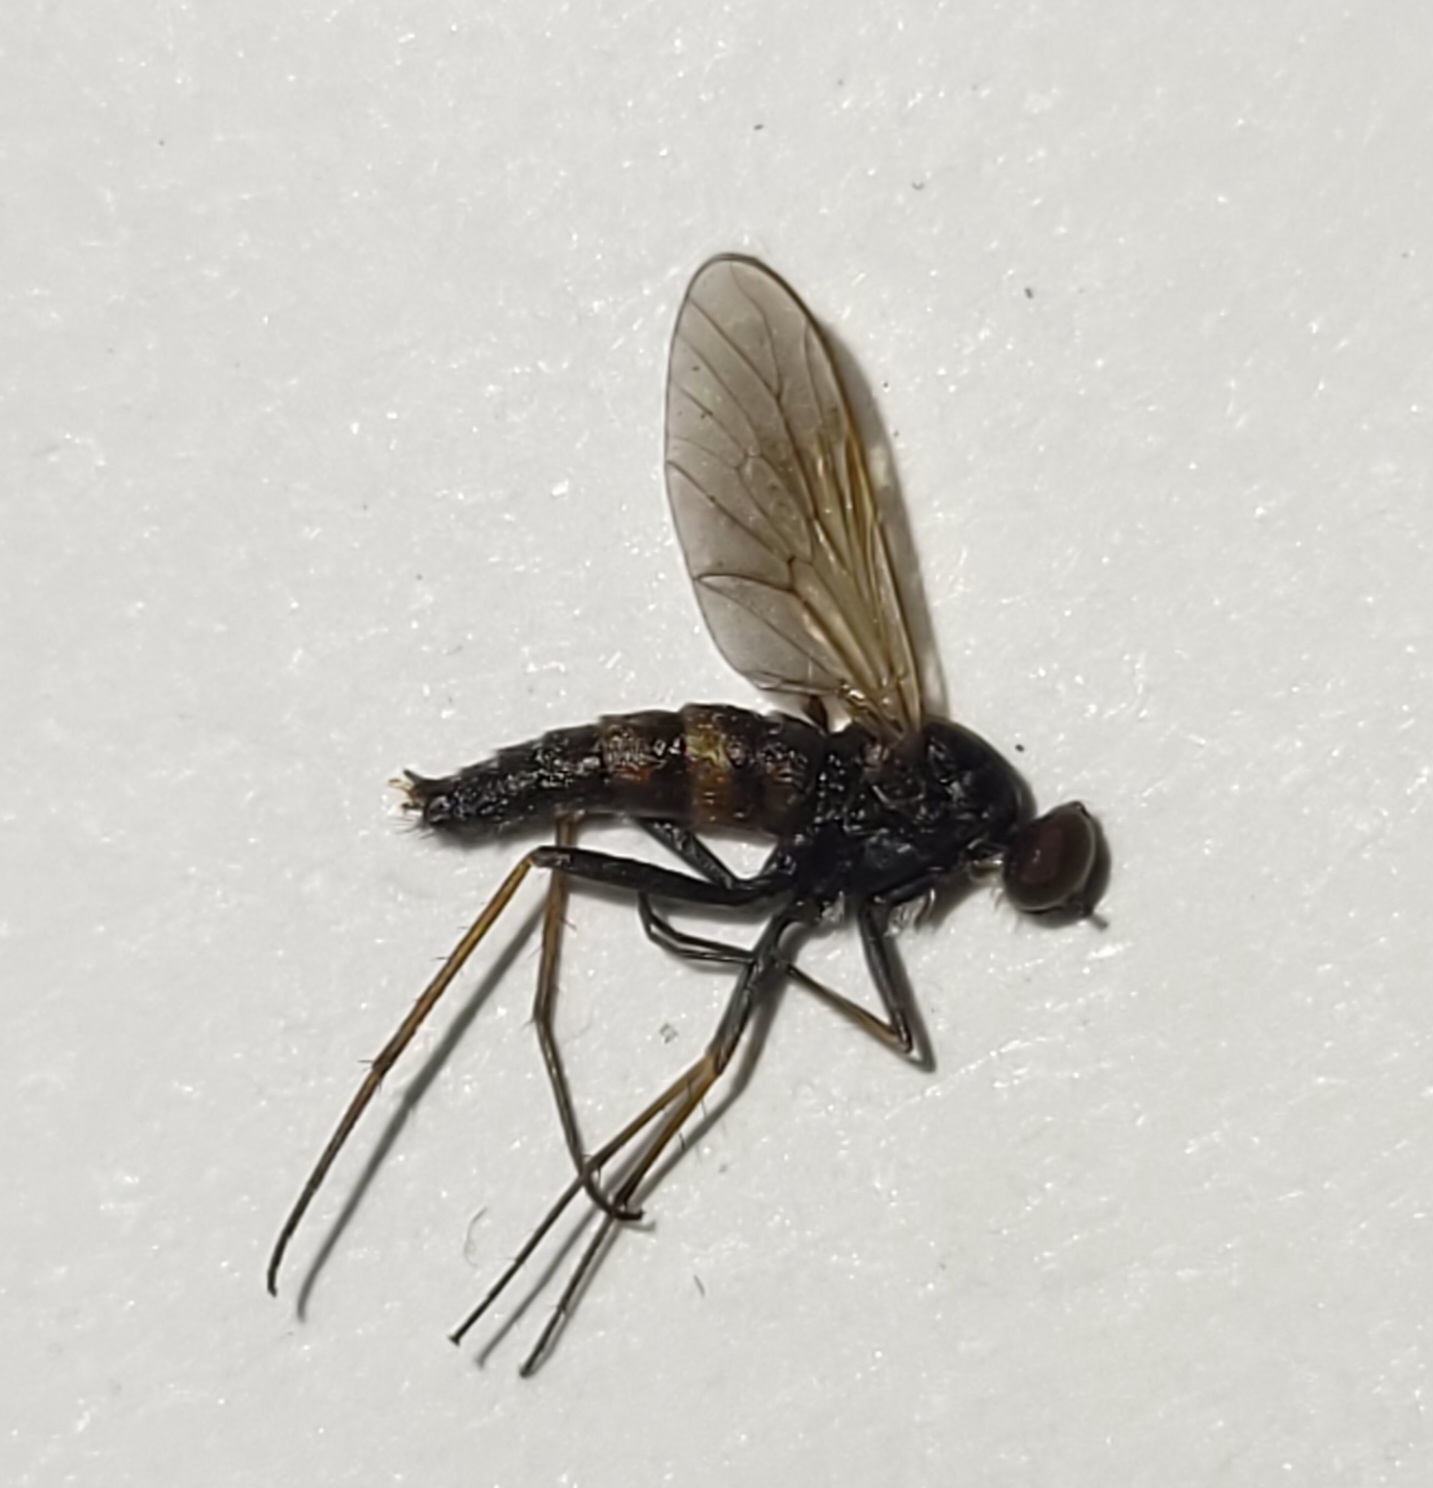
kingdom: Animalia
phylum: Arthropoda
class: Insecta
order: Diptera
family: Therevidae
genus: Penniverpa
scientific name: Penniverpa festina
